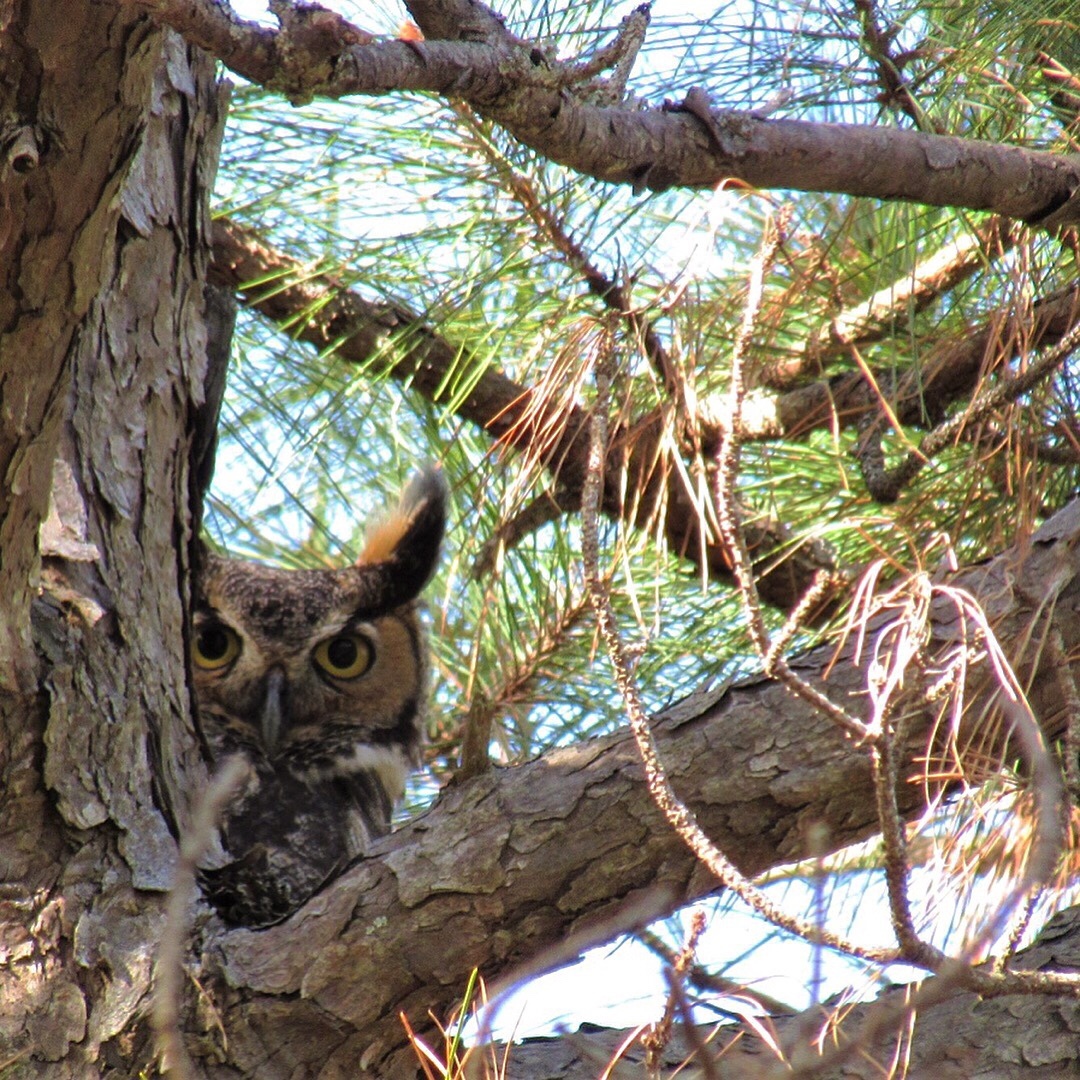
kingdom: Animalia
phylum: Chordata
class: Aves
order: Strigiformes
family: Strigidae
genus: Bubo
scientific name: Bubo virginianus
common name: Great horned owl
